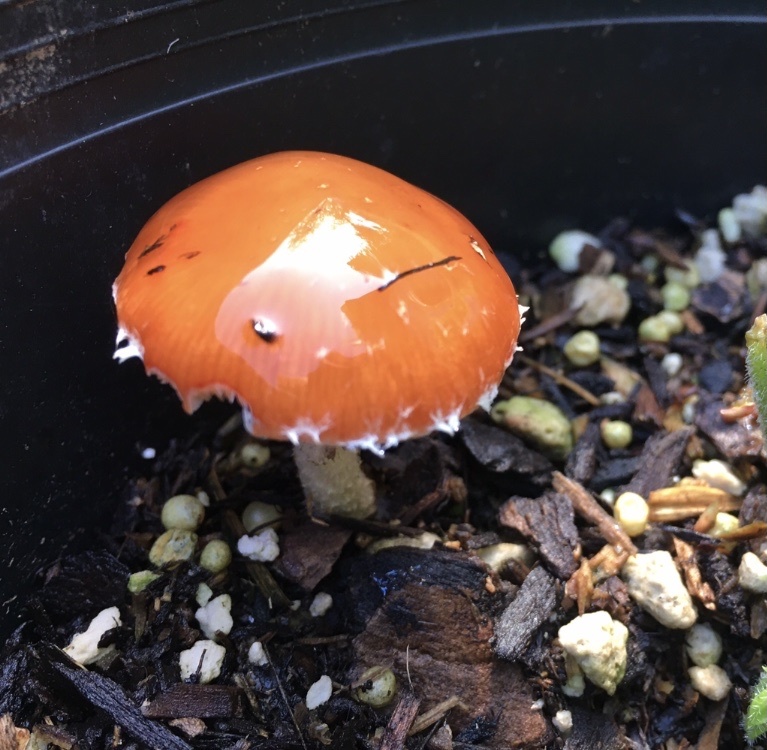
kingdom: Fungi
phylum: Basidiomycota
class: Agaricomycetes
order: Agaricales
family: Strophariaceae
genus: Leratiomyces
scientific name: Leratiomyces ceres
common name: Redlead roundhead
